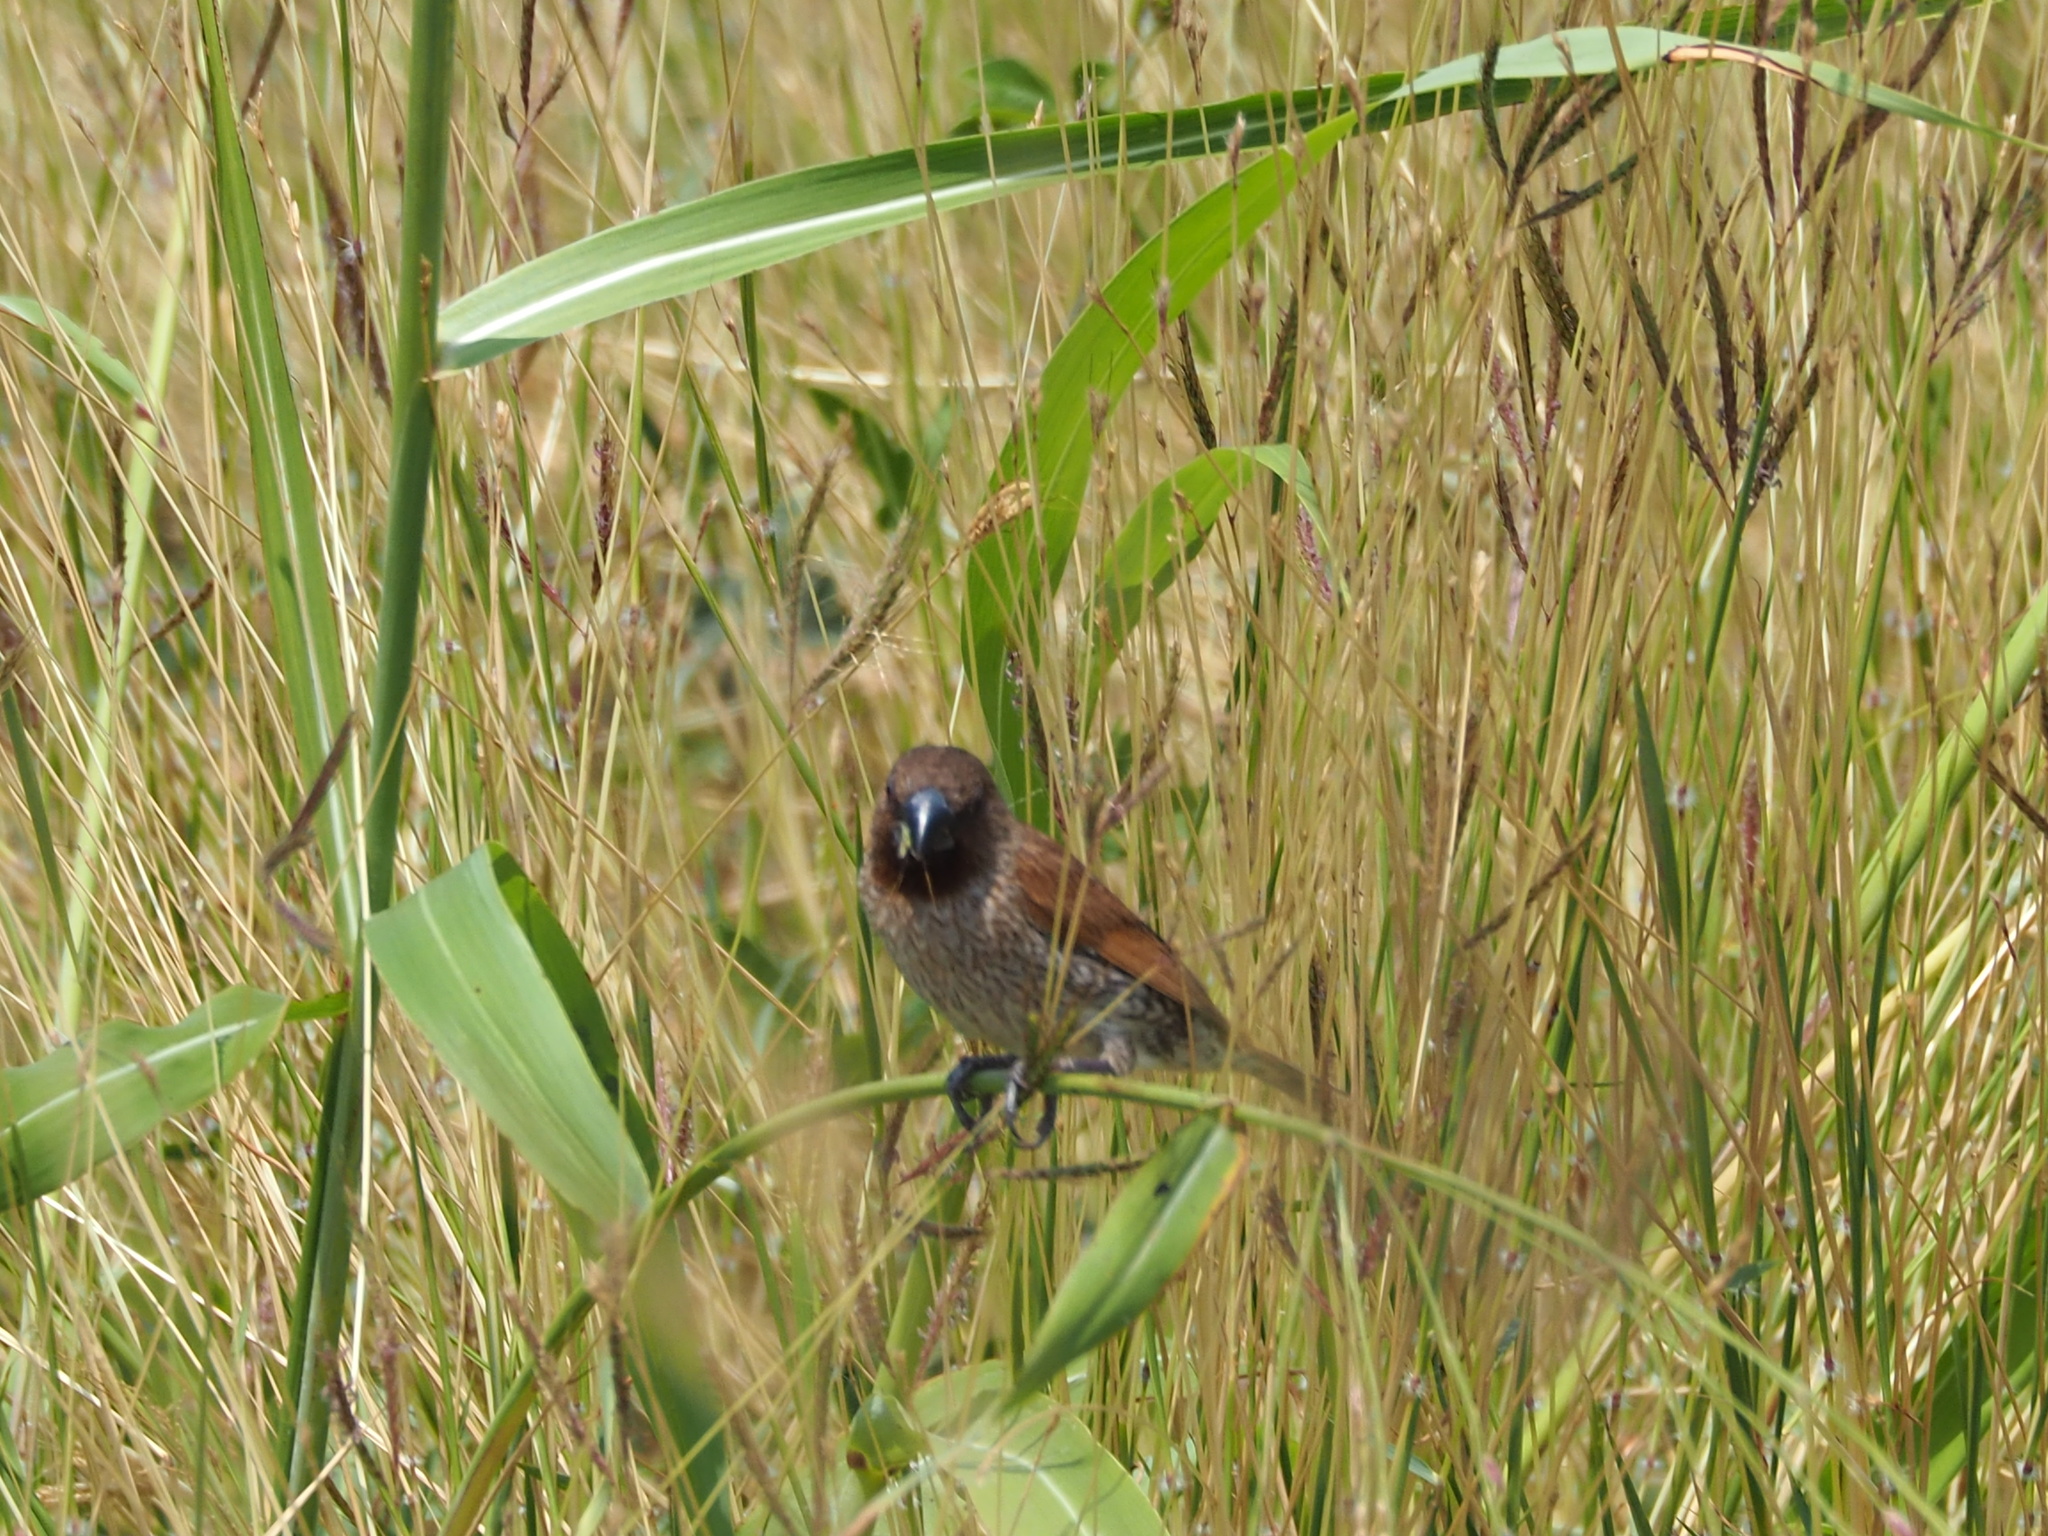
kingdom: Animalia
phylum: Chordata
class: Aves
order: Passeriformes
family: Estrildidae
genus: Lonchura
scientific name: Lonchura punctulata
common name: Scaly-breasted munia
